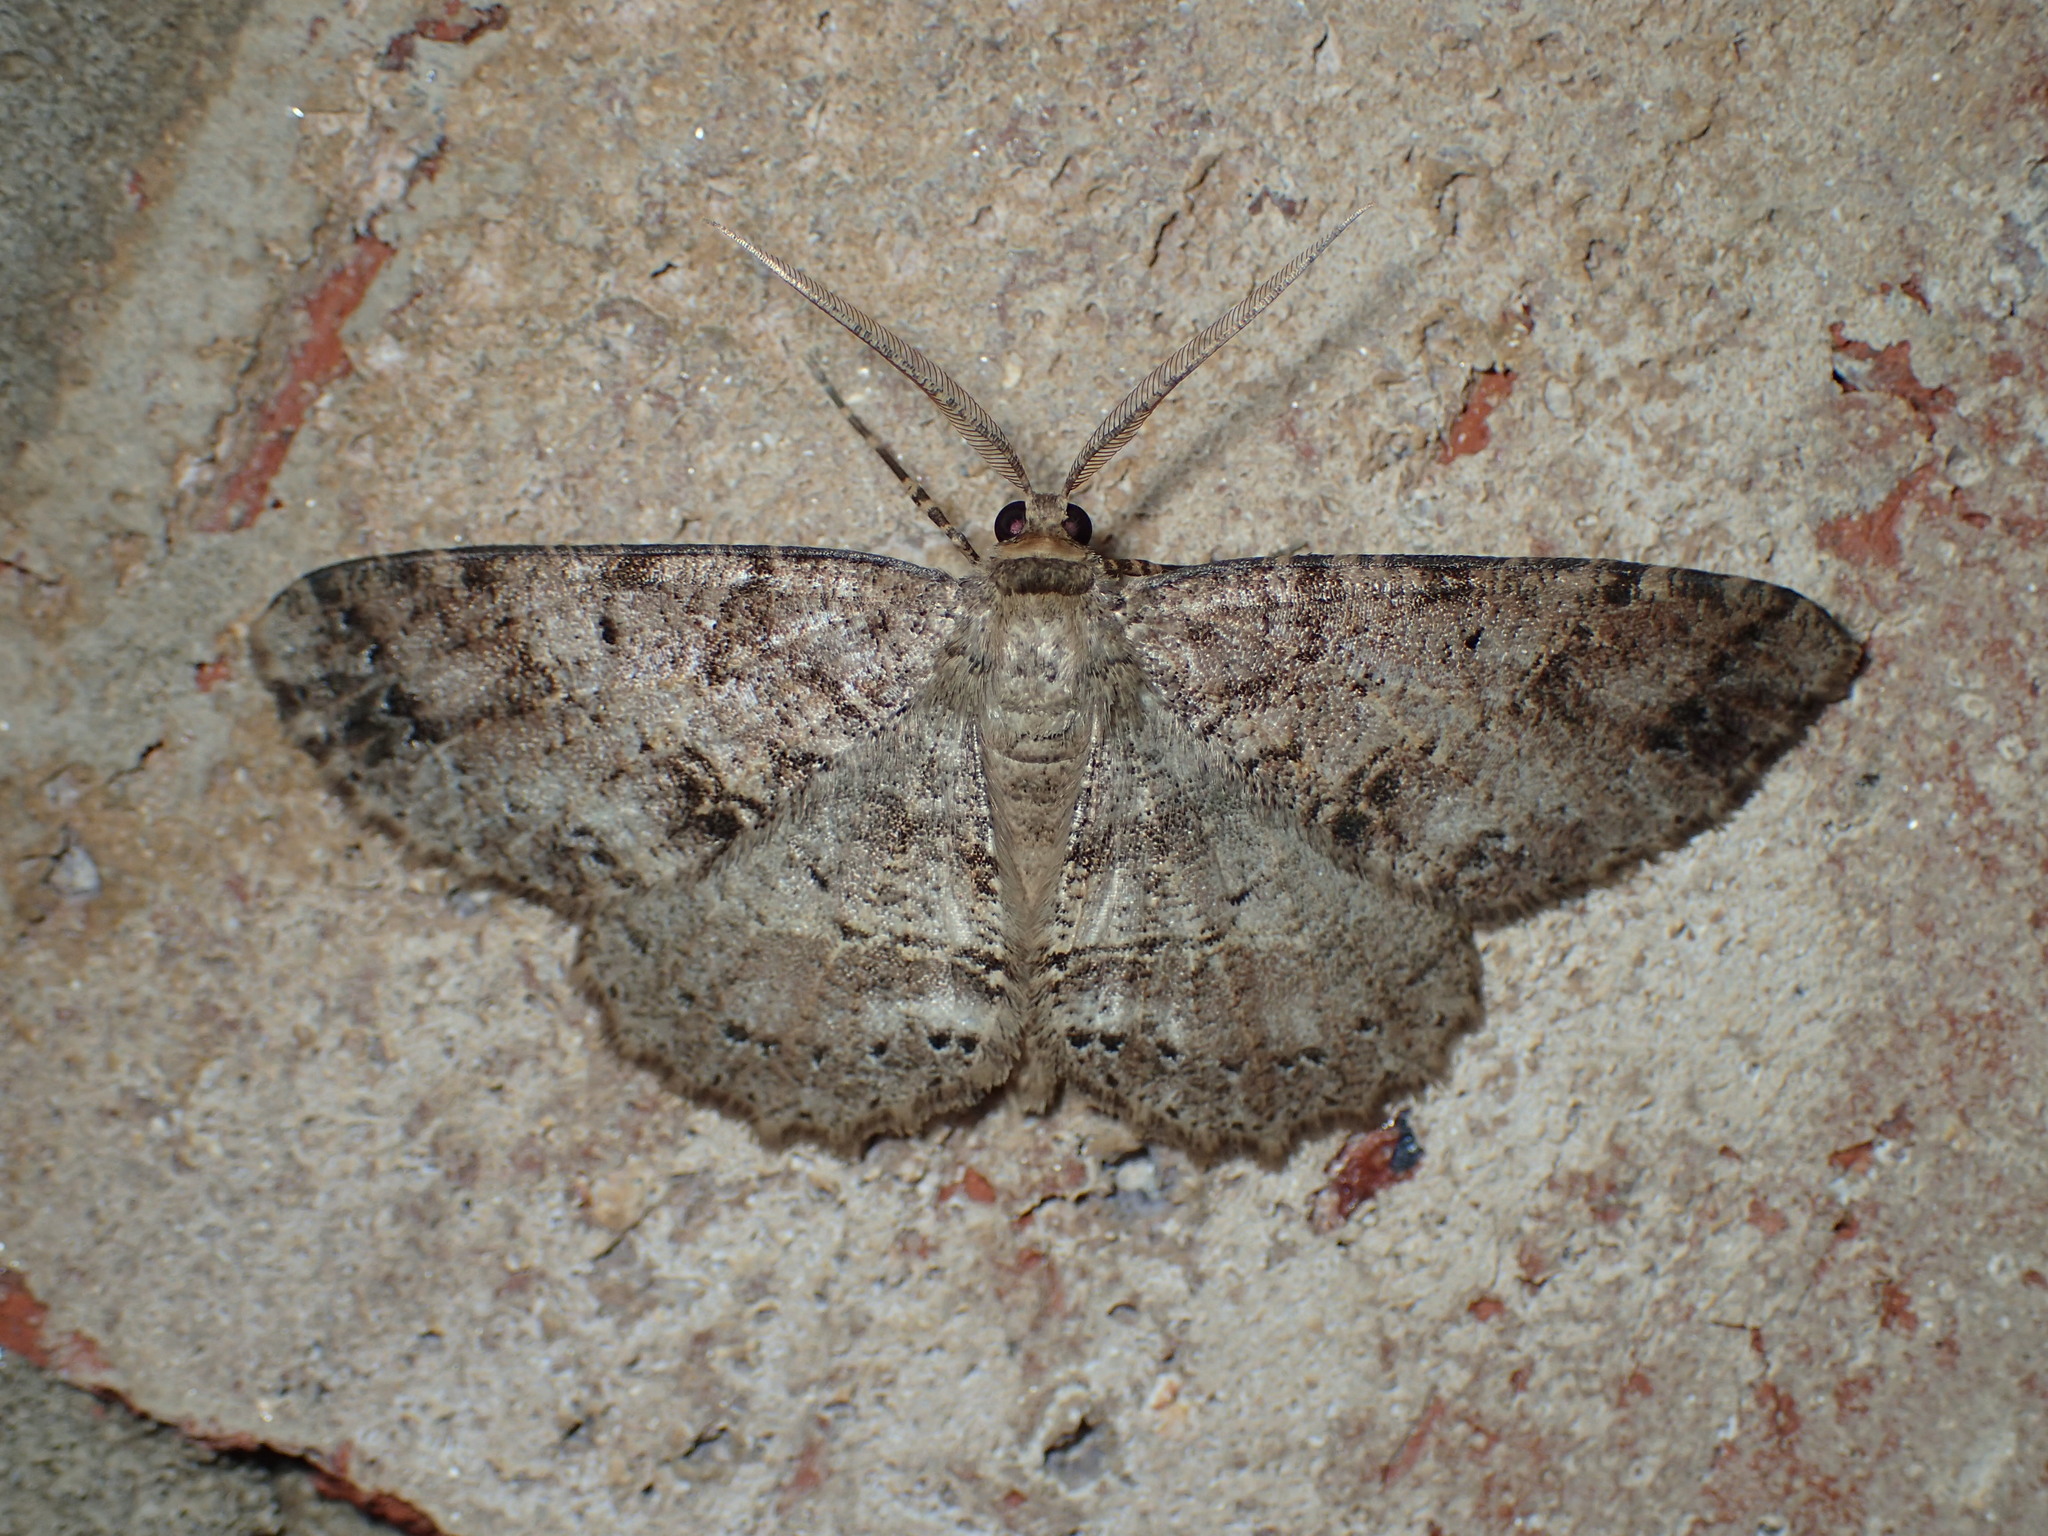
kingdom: Animalia
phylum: Arthropoda
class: Insecta
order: Lepidoptera
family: Geometridae
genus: Melanolophia
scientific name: Melanolophia canadaria
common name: Canadian melanolophia
